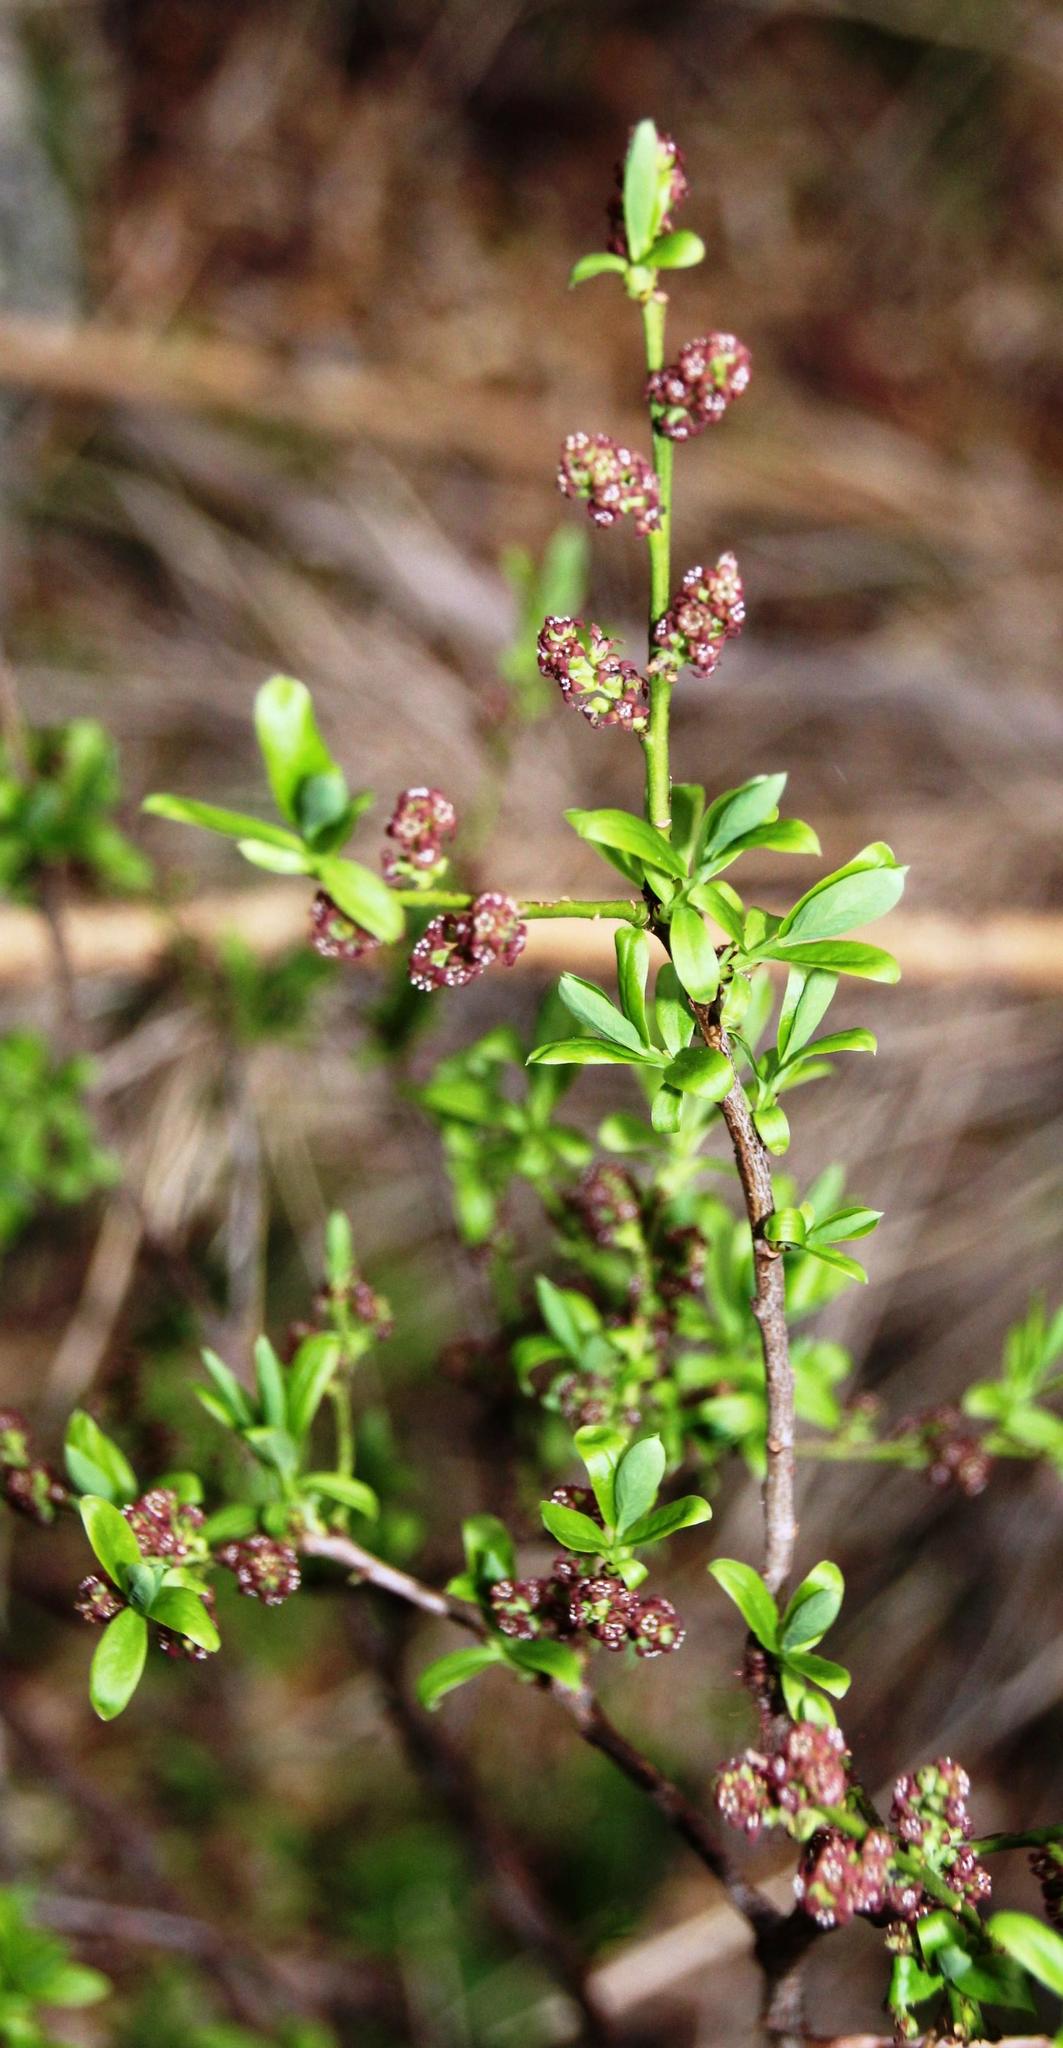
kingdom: Plantae
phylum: Tracheophyta
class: Magnoliopsida
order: Santalales
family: Santalaceae
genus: Myoschilos
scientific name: Myoschilos oblongum
